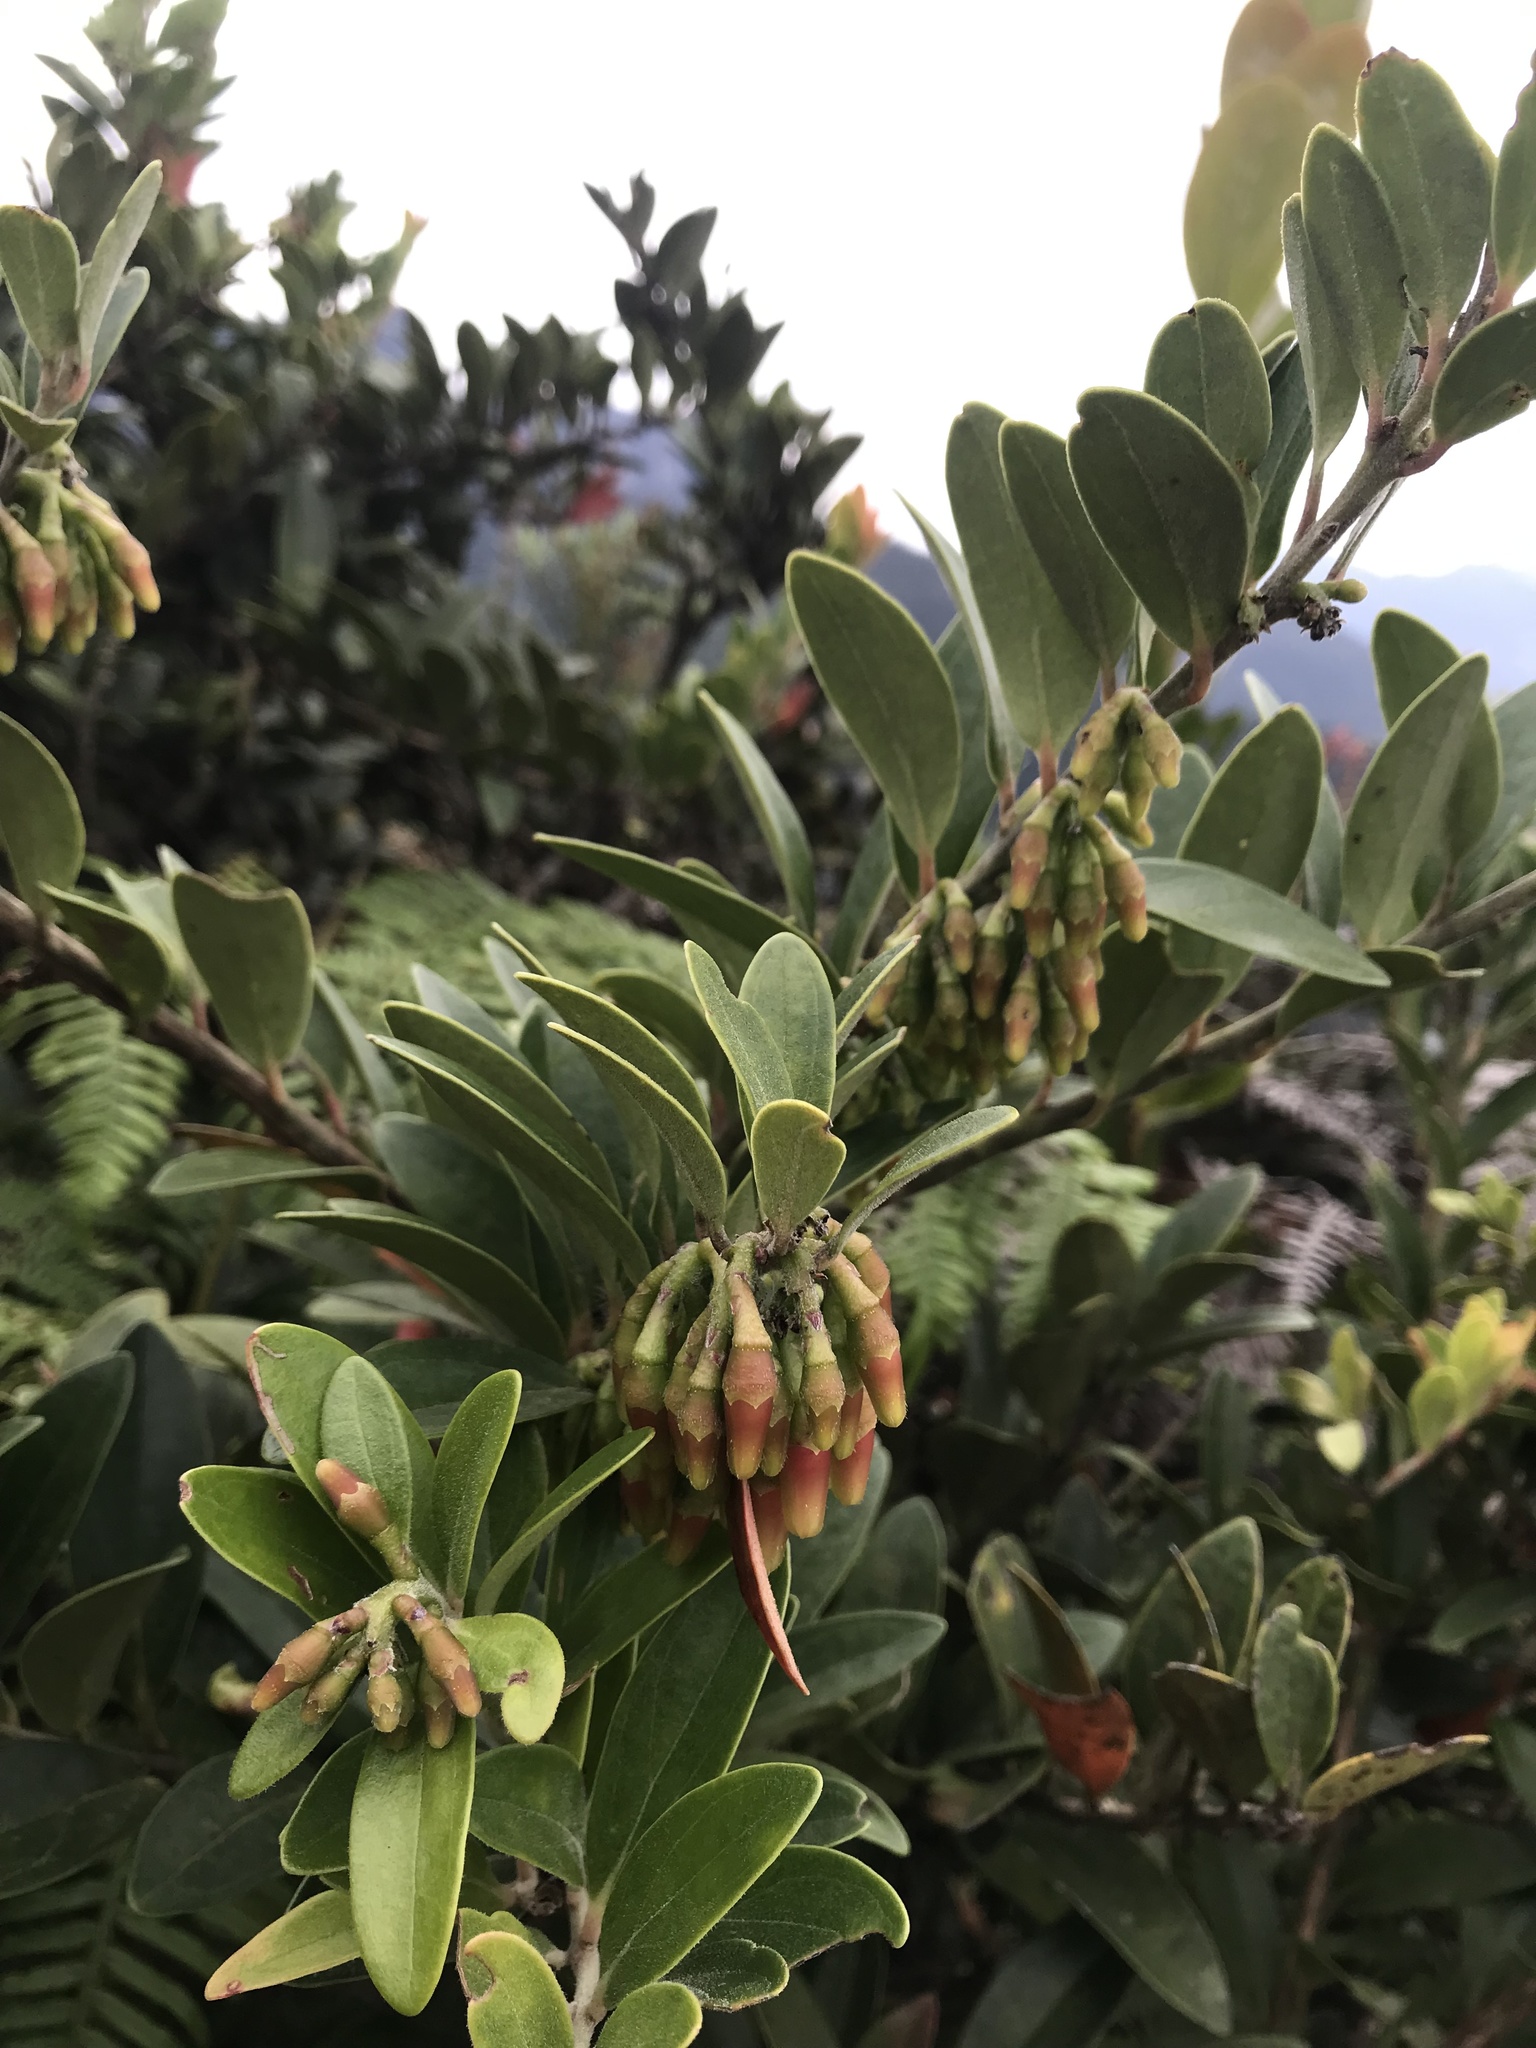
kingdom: Plantae
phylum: Tracheophyta
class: Magnoliopsida
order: Ericales
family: Ericaceae
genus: Macleania
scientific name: Macleania rupestris
